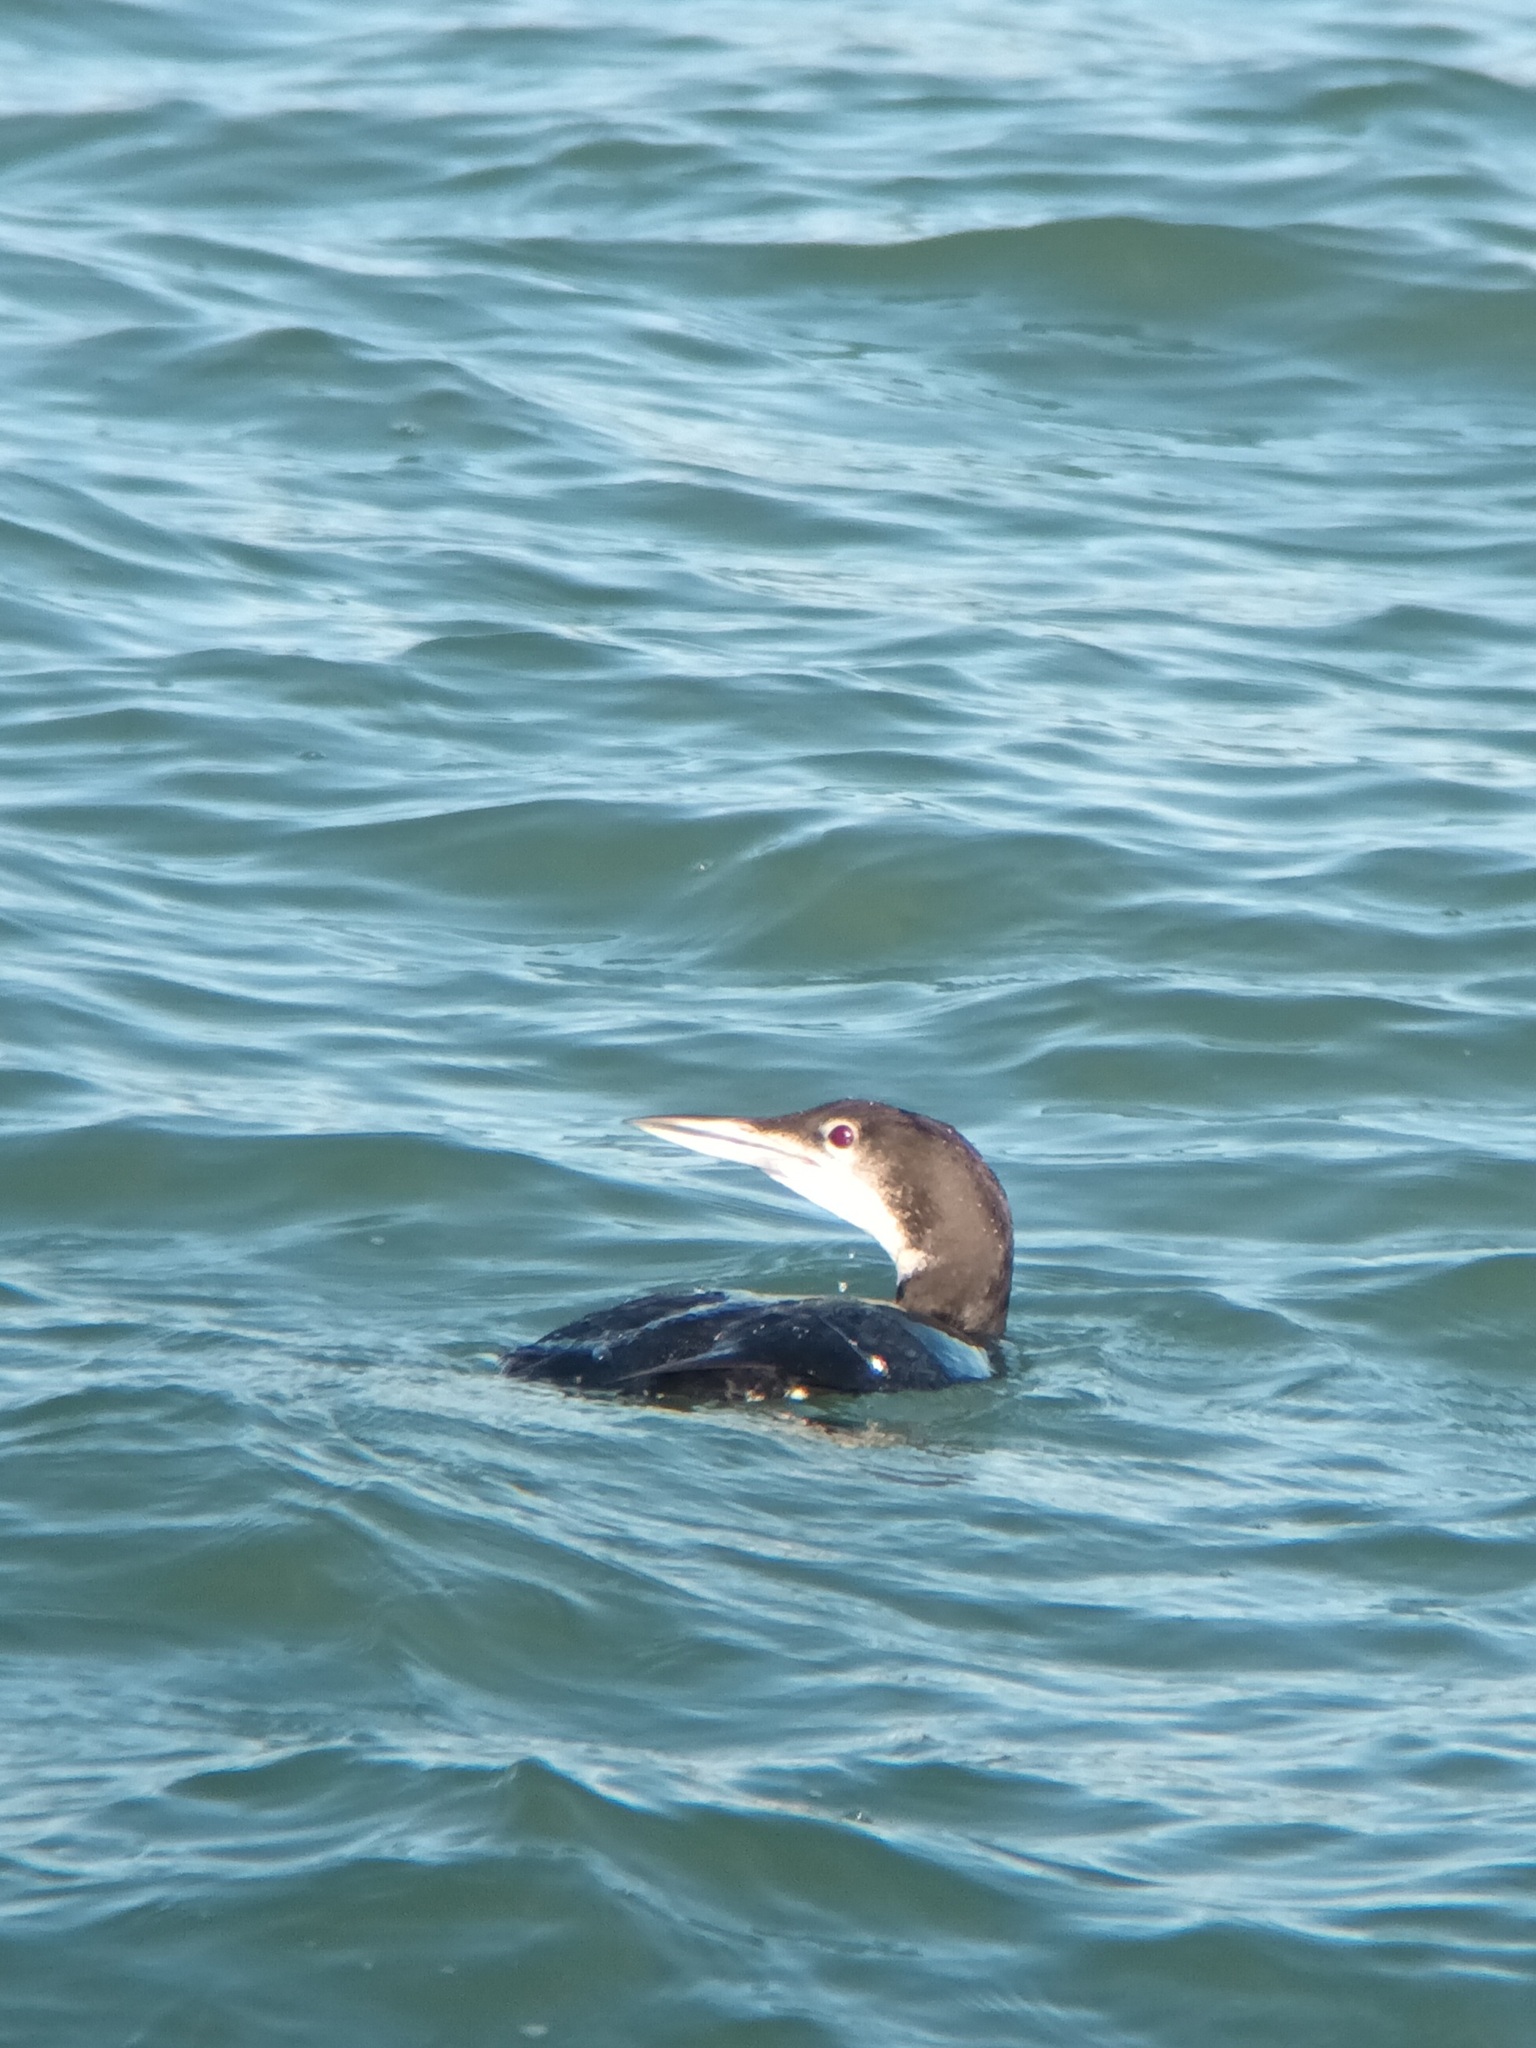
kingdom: Animalia
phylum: Chordata
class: Aves
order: Gaviiformes
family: Gaviidae
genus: Gavia
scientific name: Gavia immer
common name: Common loon
